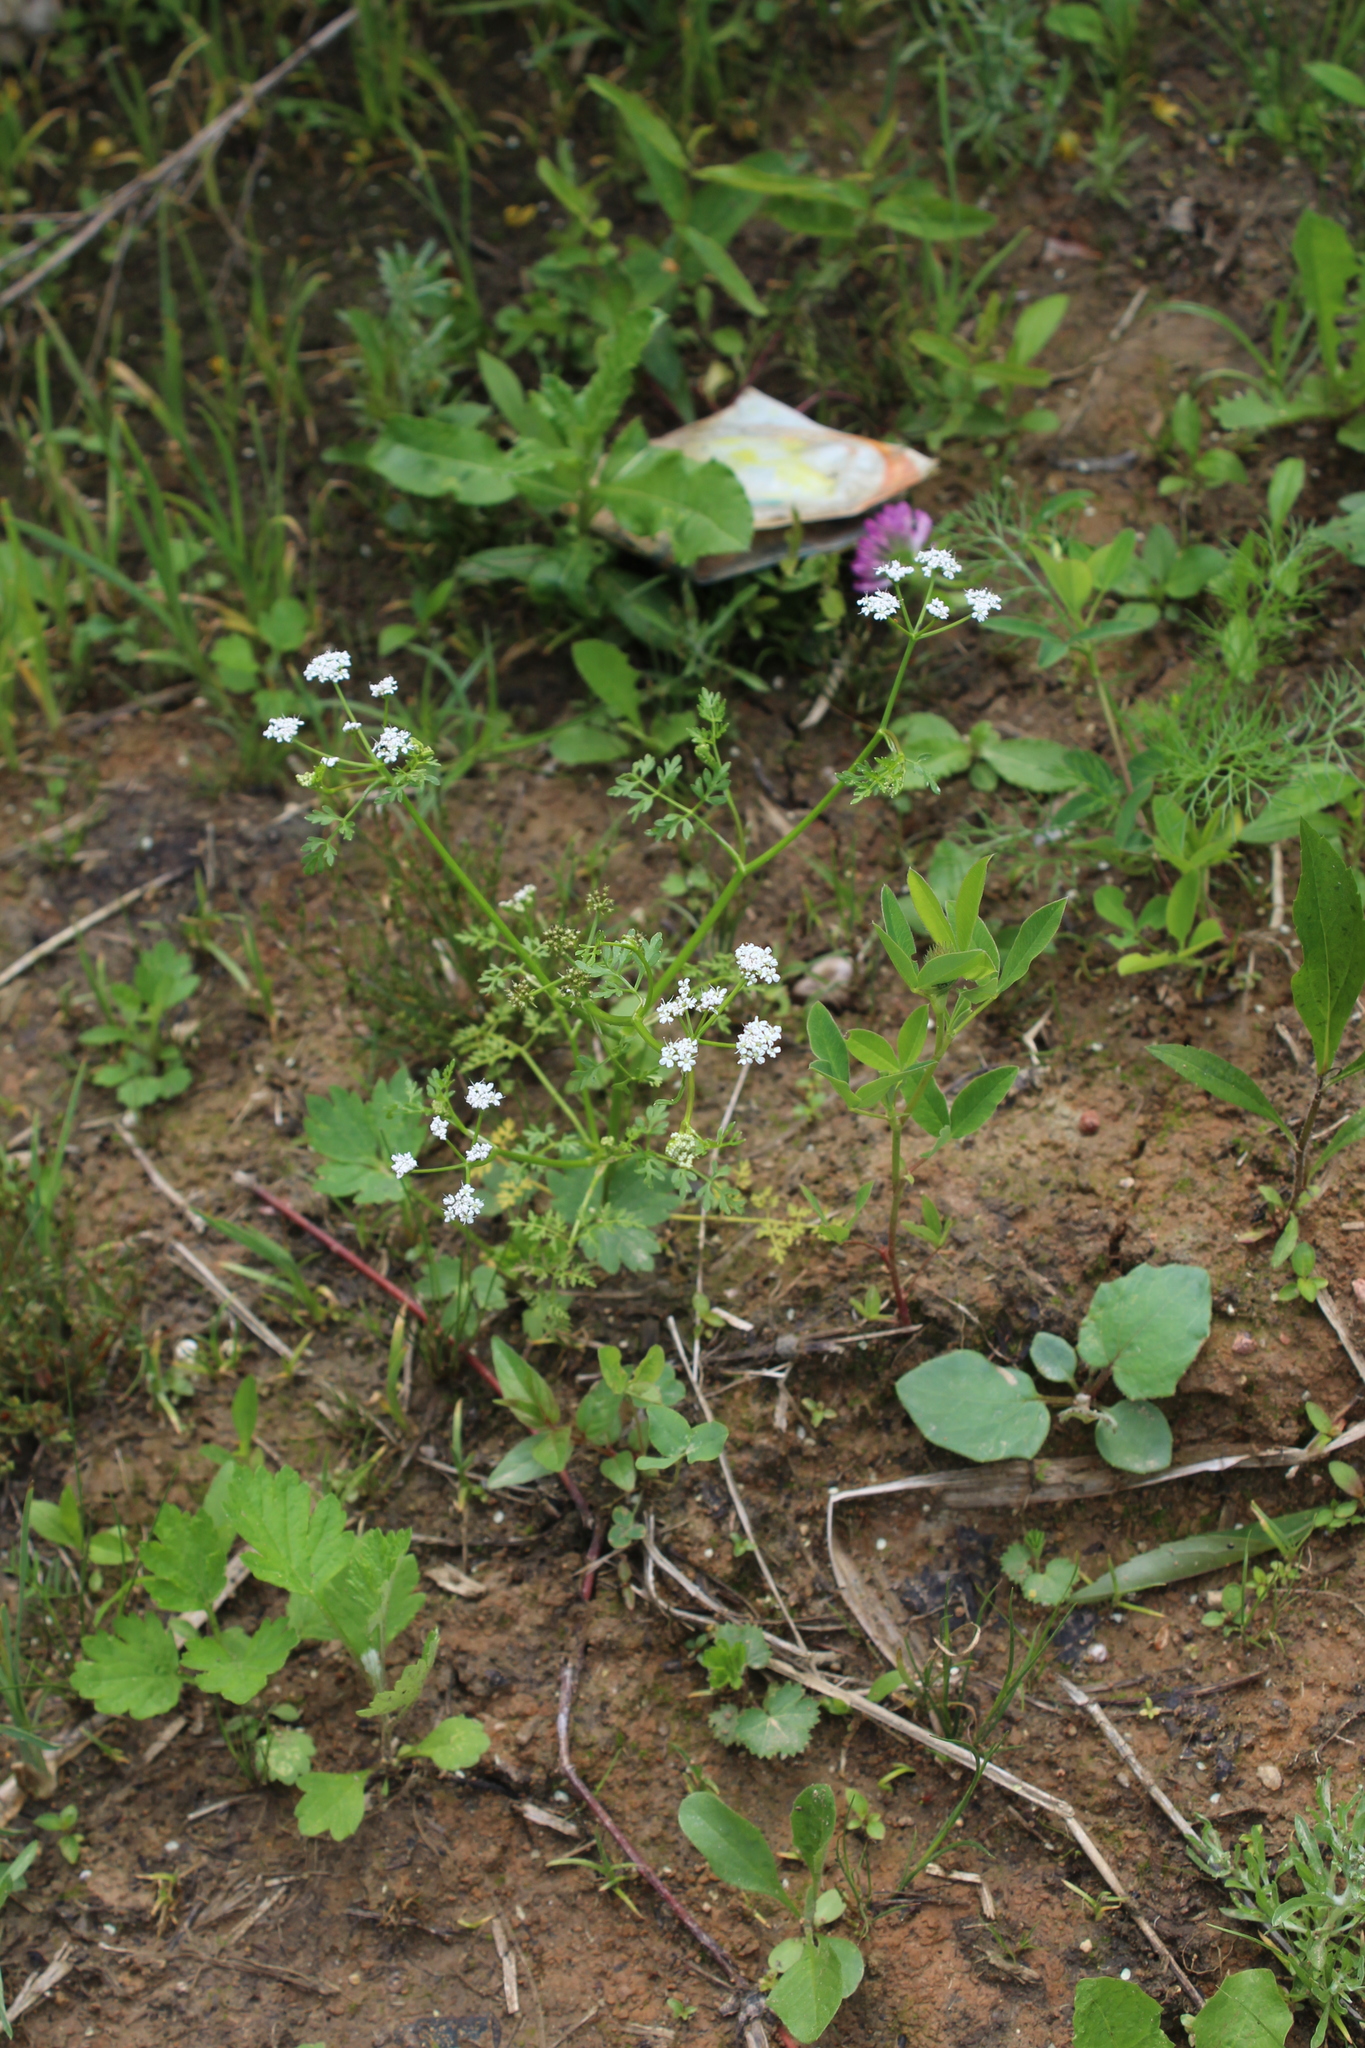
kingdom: Plantae
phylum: Tracheophyta
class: Magnoliopsida
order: Apiales
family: Apiaceae
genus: Oenanthe
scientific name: Oenanthe aquatica
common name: Fine-leaved water-dropwort
